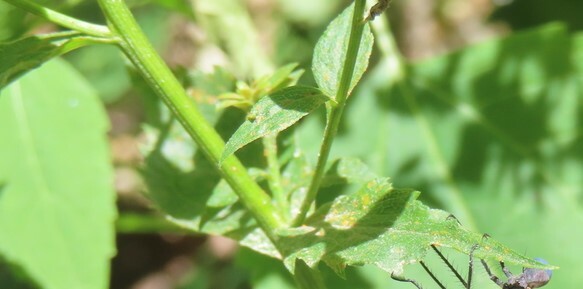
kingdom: Plantae
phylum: Tracheophyta
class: Magnoliopsida
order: Asterales
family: Asteraceae
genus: Solidago
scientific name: Solidago ulmifolia
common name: Elm-leaf goldenrod
